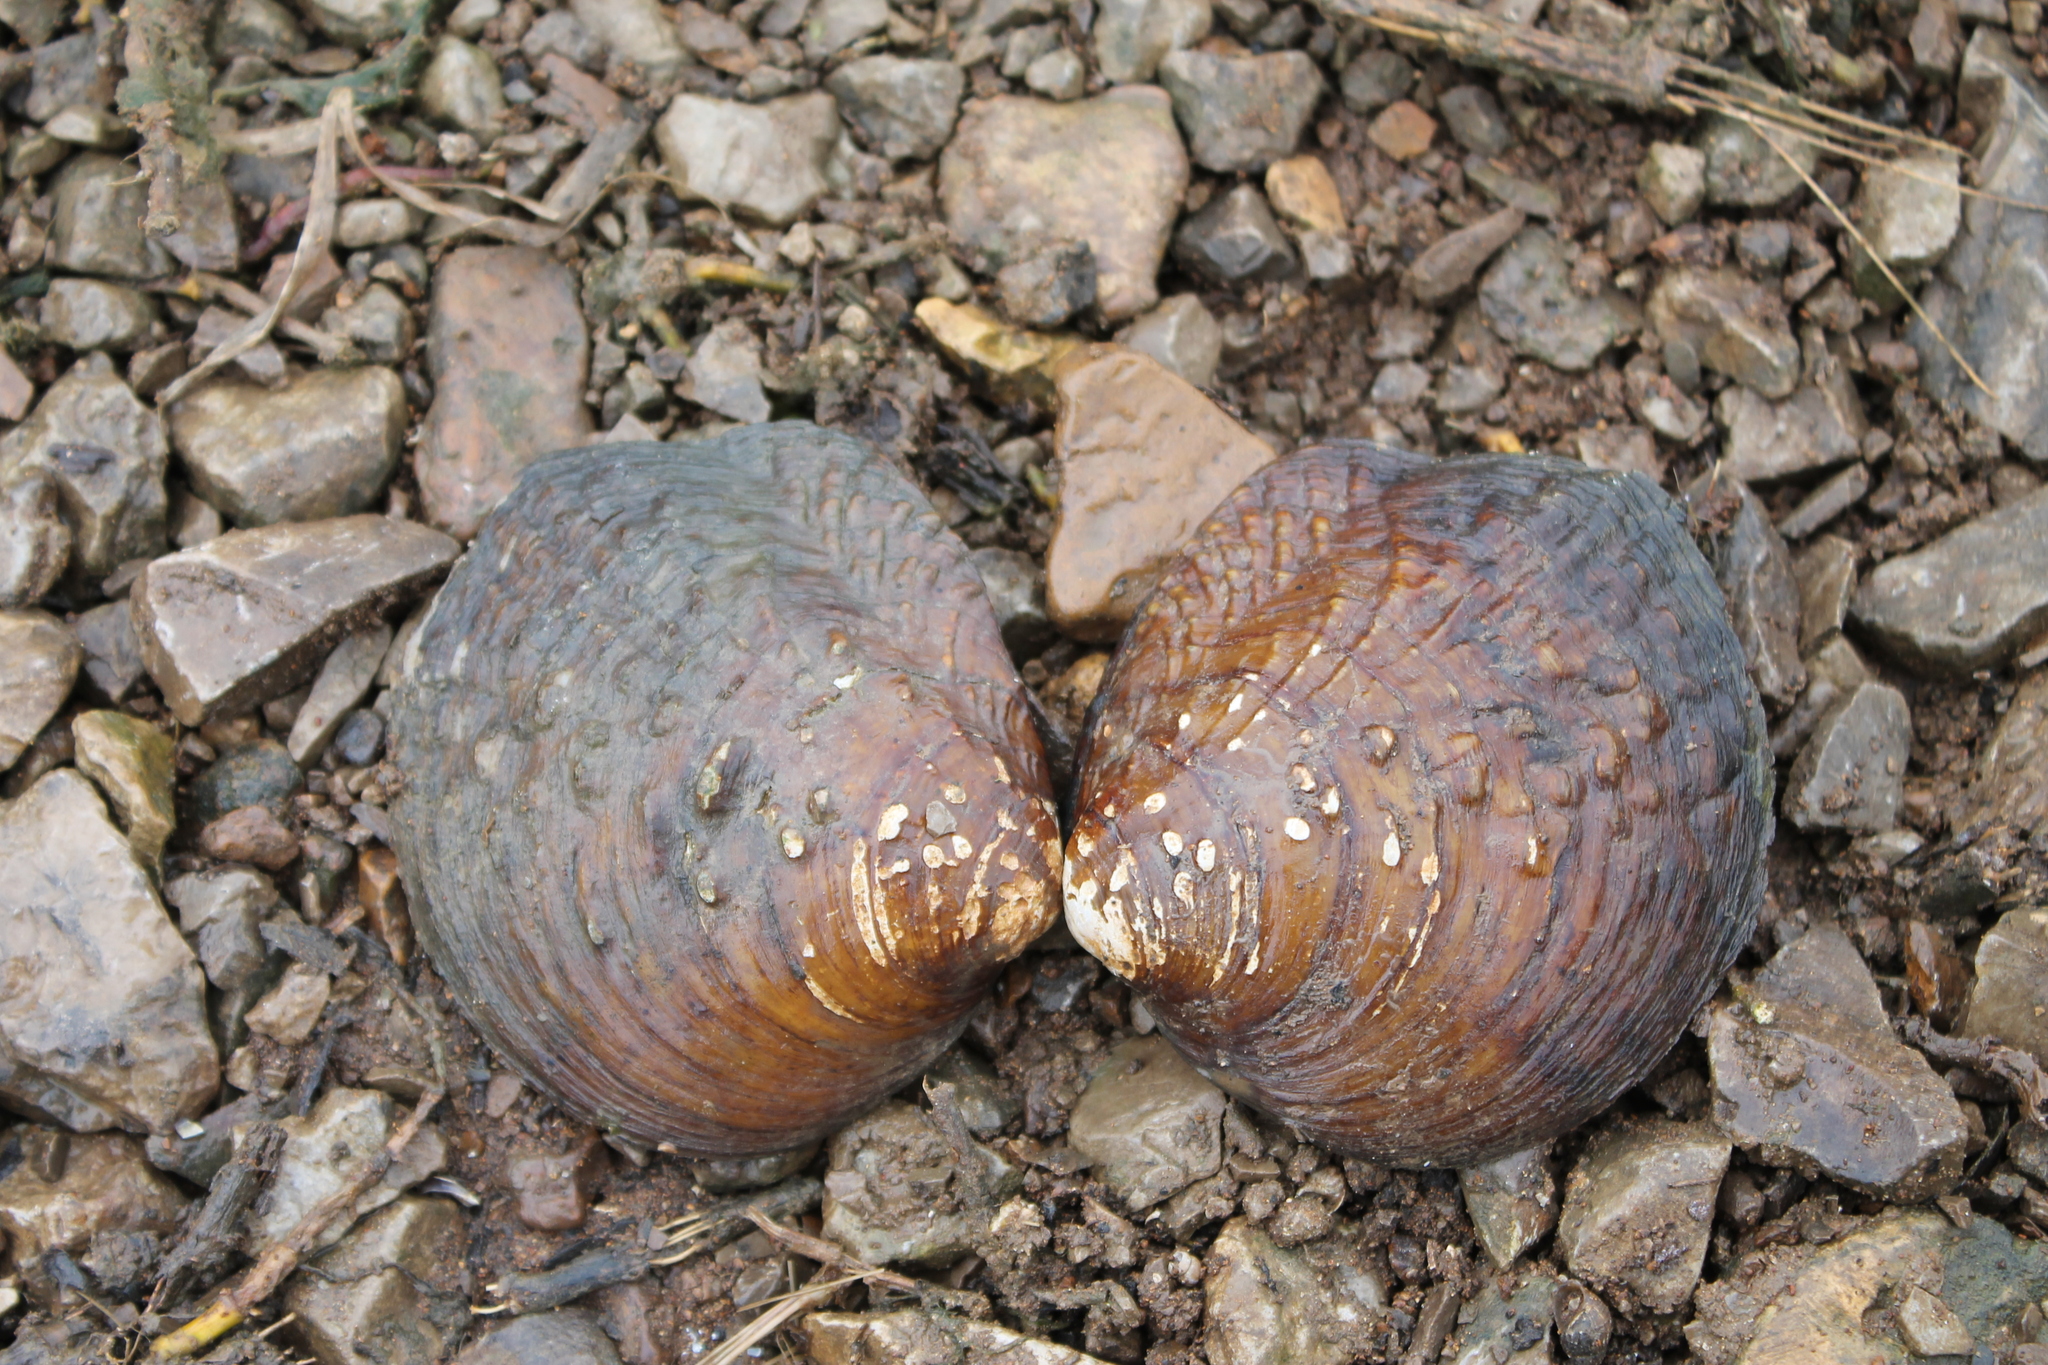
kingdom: Animalia
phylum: Mollusca
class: Bivalvia
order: Unionida
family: Unionidae
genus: Cyclonaias
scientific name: Cyclonaias tuberculata
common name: Purple wartyback
